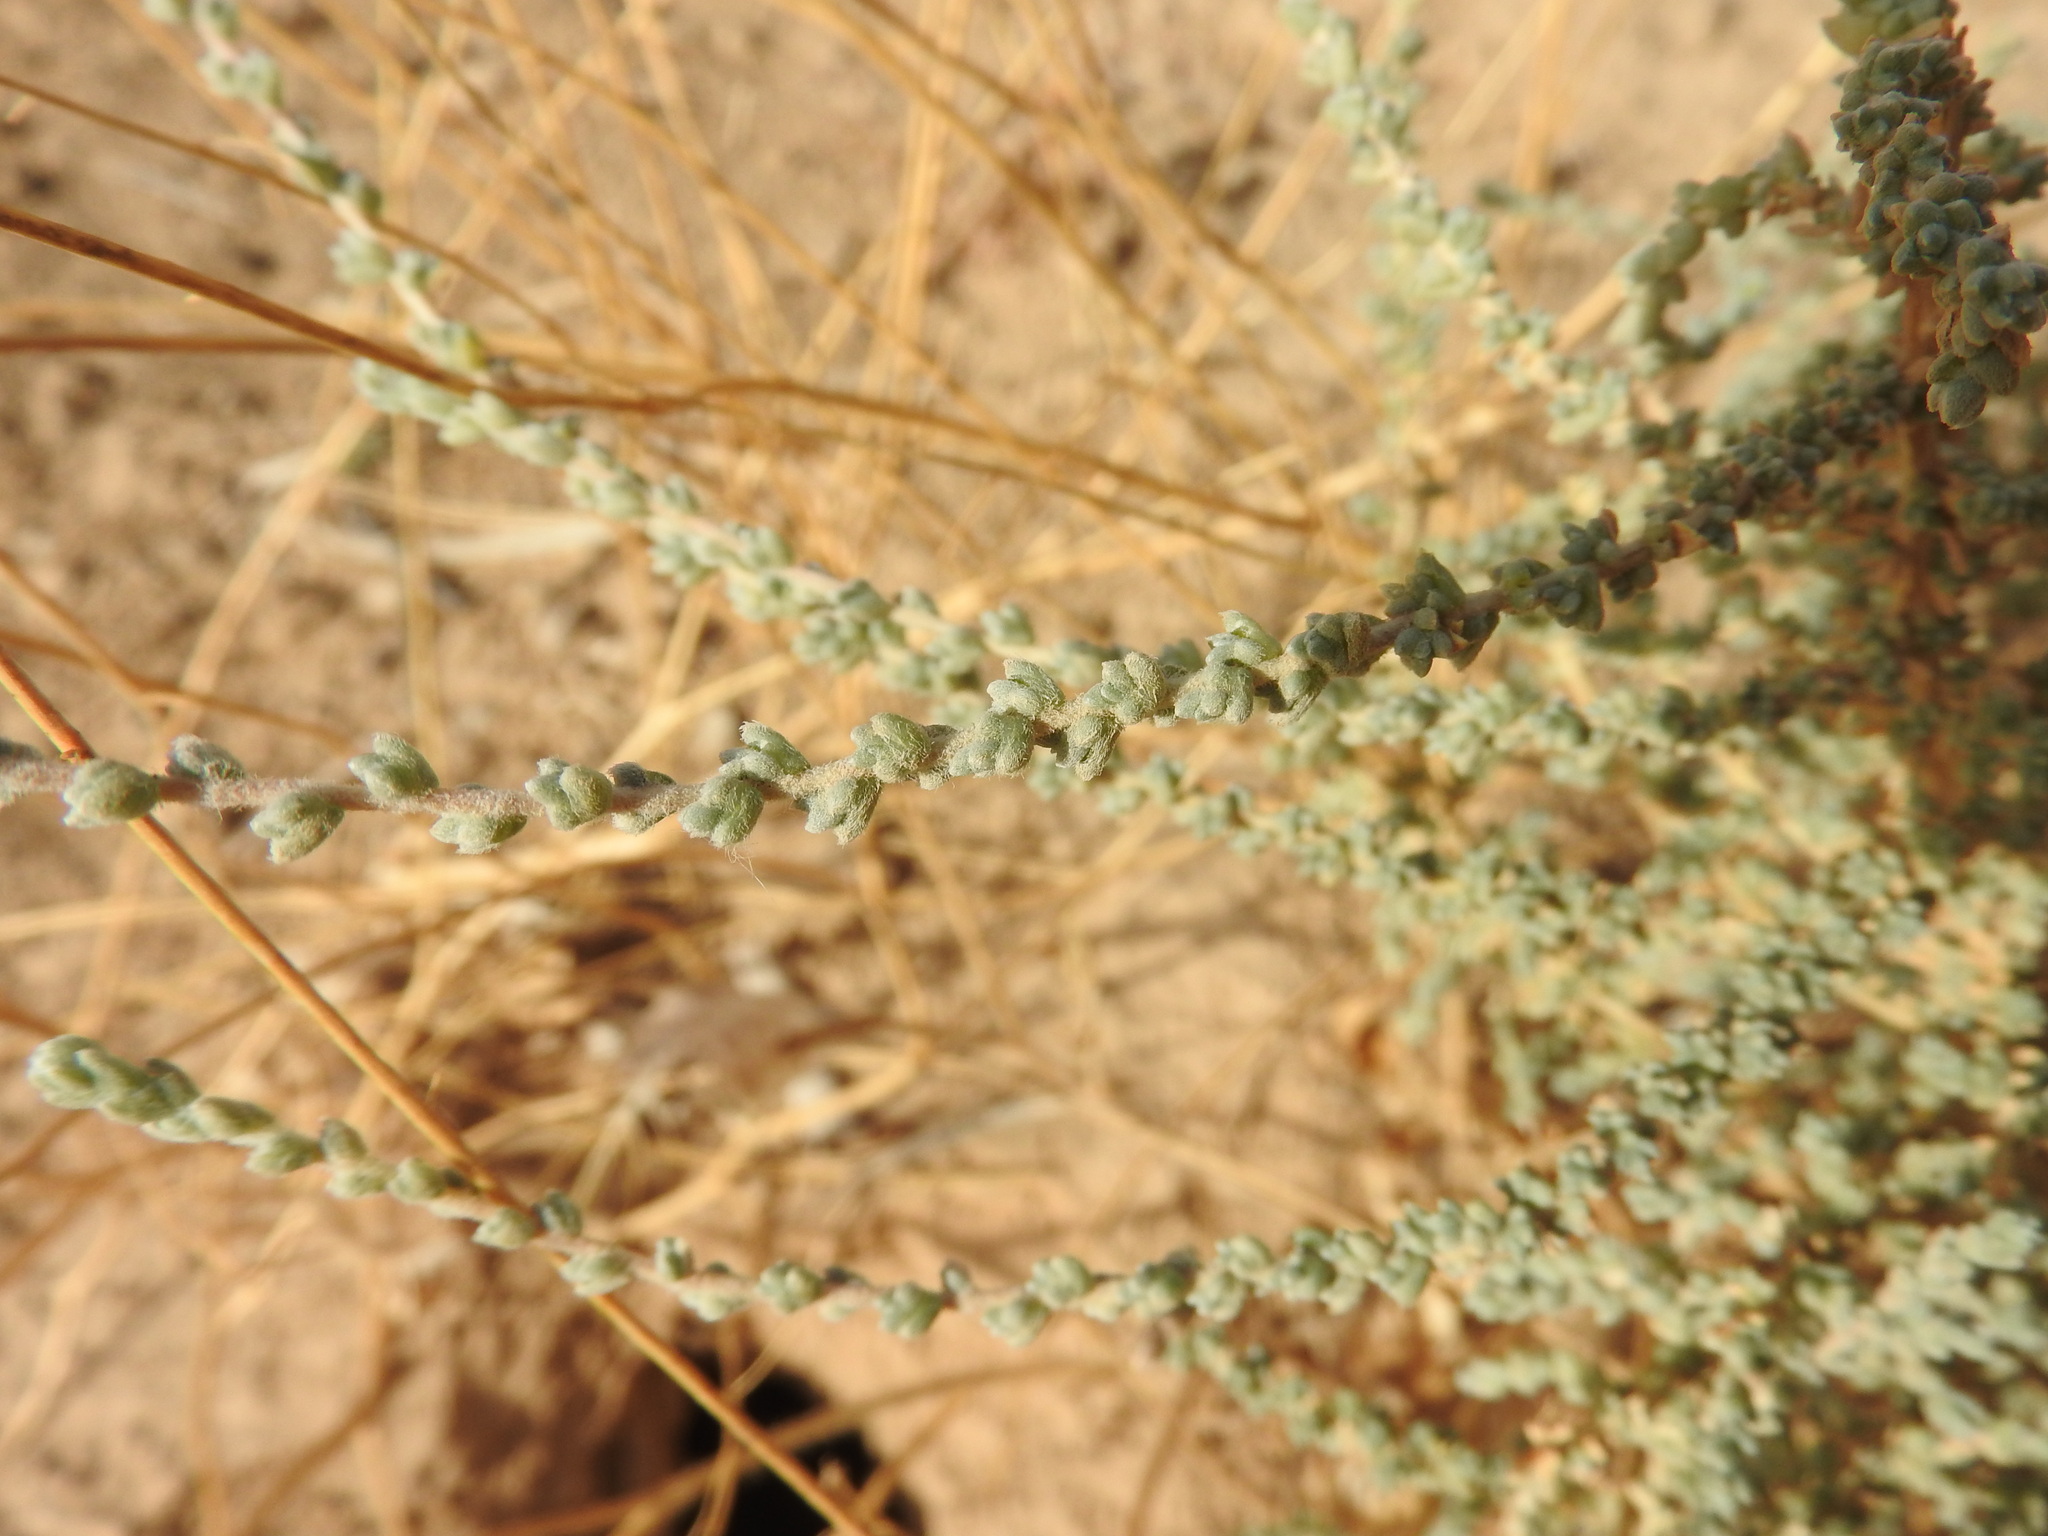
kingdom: Plantae
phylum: Tracheophyta
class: Magnoliopsida
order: Caryophyllales
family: Amaranthaceae
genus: Nitrosalsola
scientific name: Nitrosalsola vermiculata
